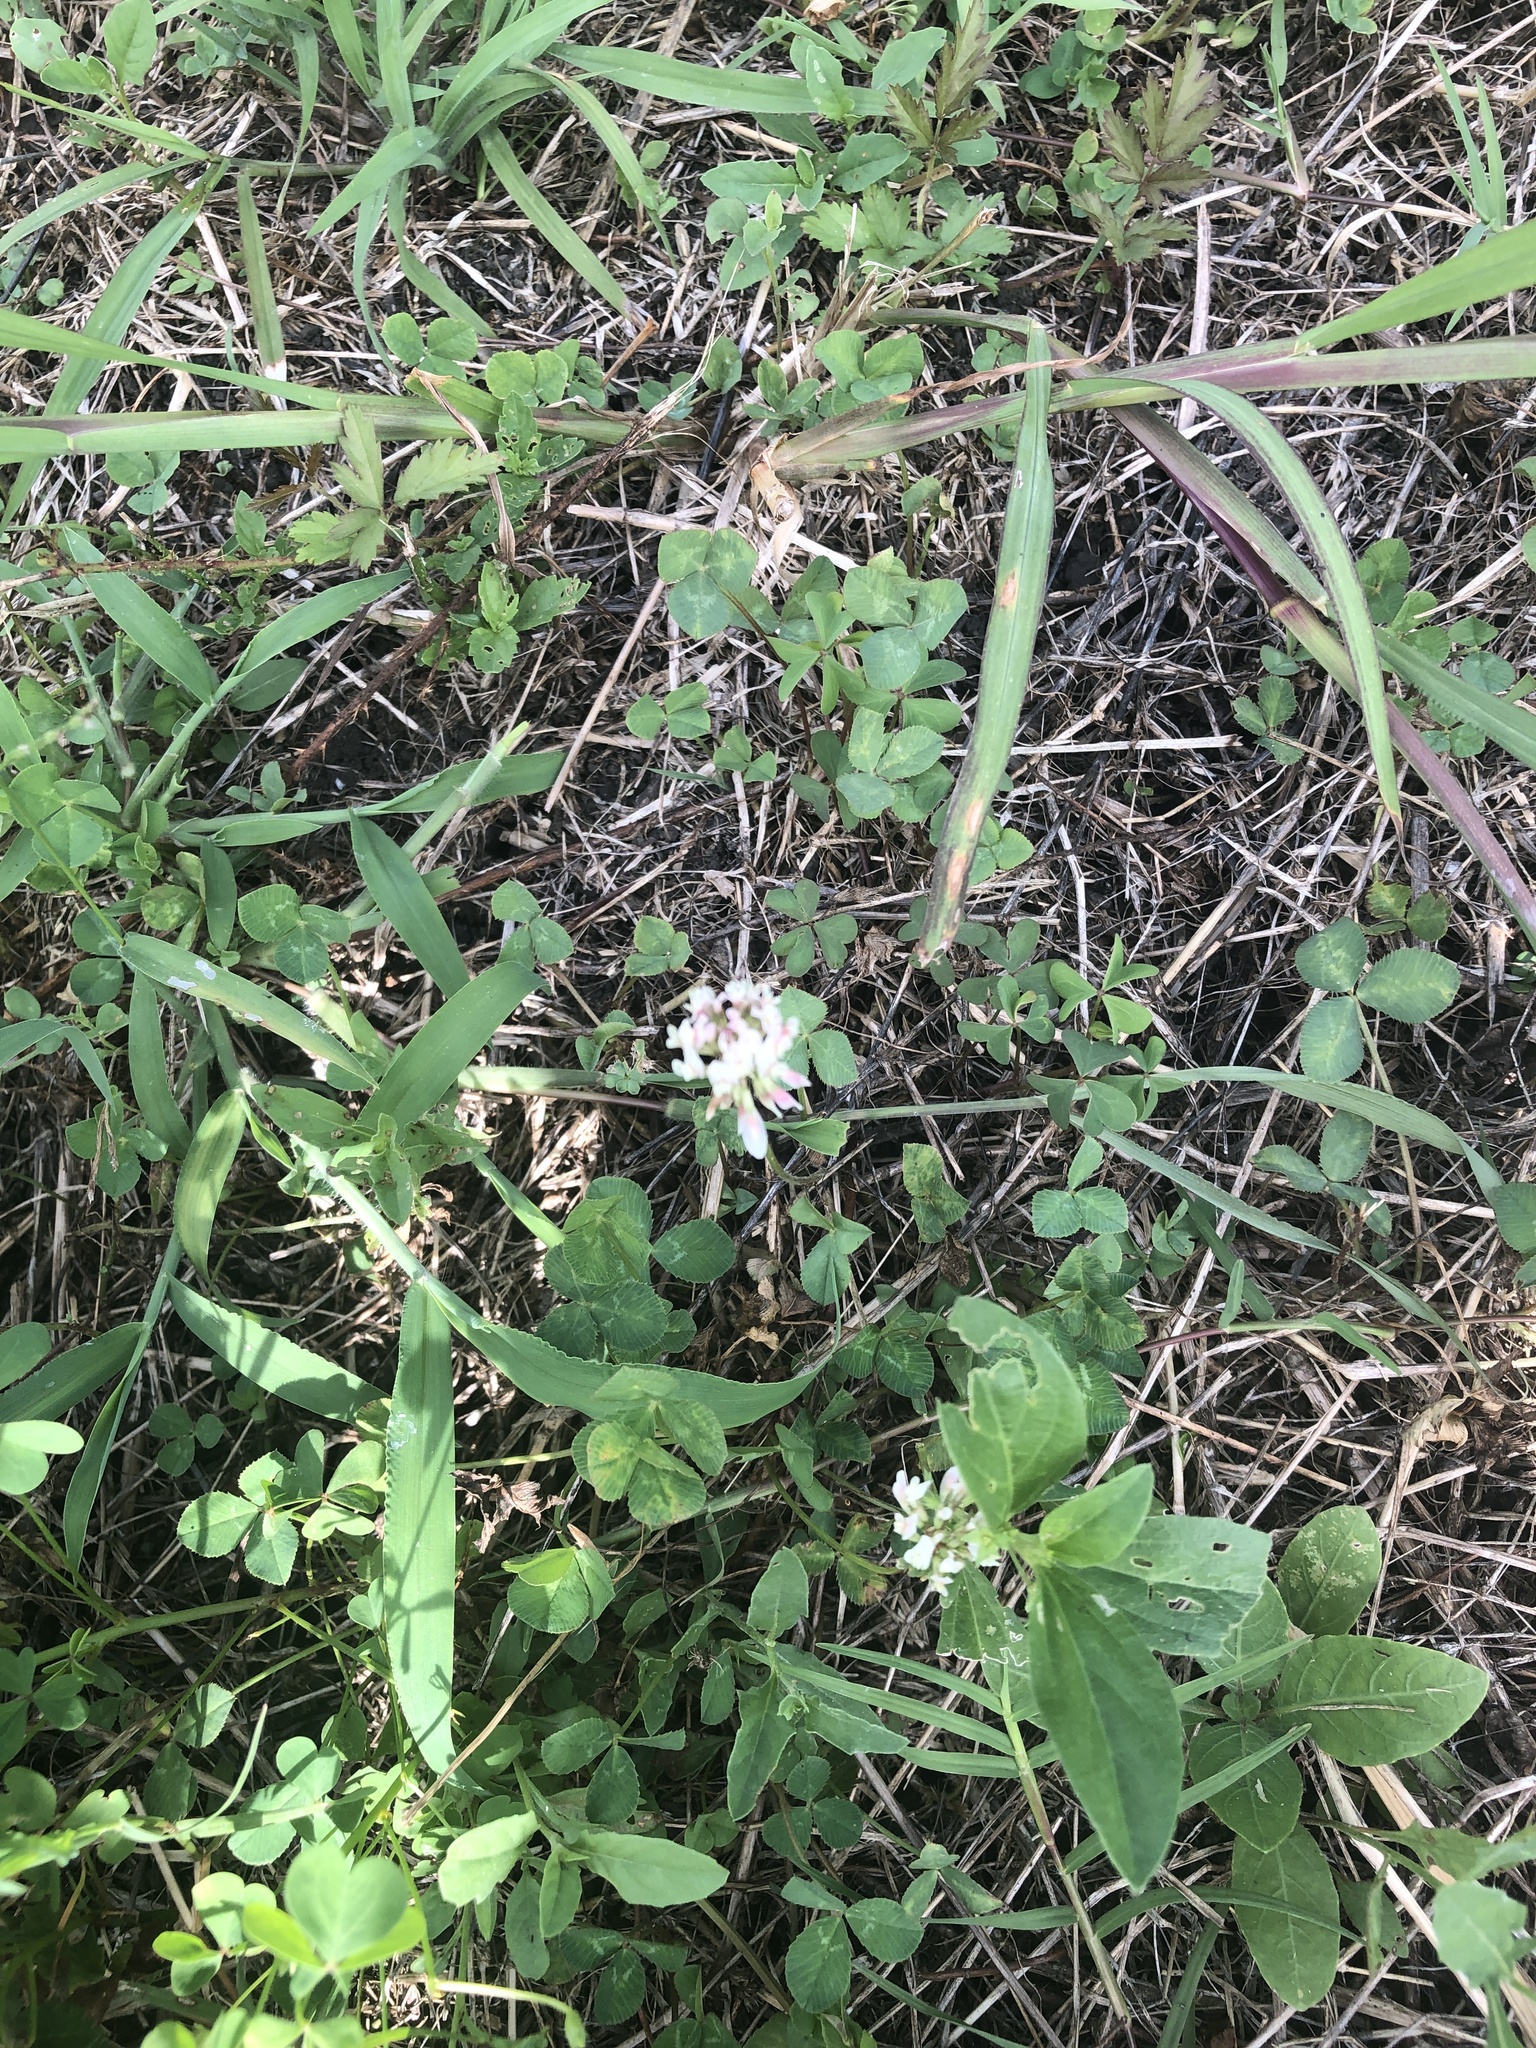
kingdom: Plantae
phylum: Tracheophyta
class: Magnoliopsida
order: Fabales
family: Fabaceae
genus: Trifolium
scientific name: Trifolium repens
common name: White clover
